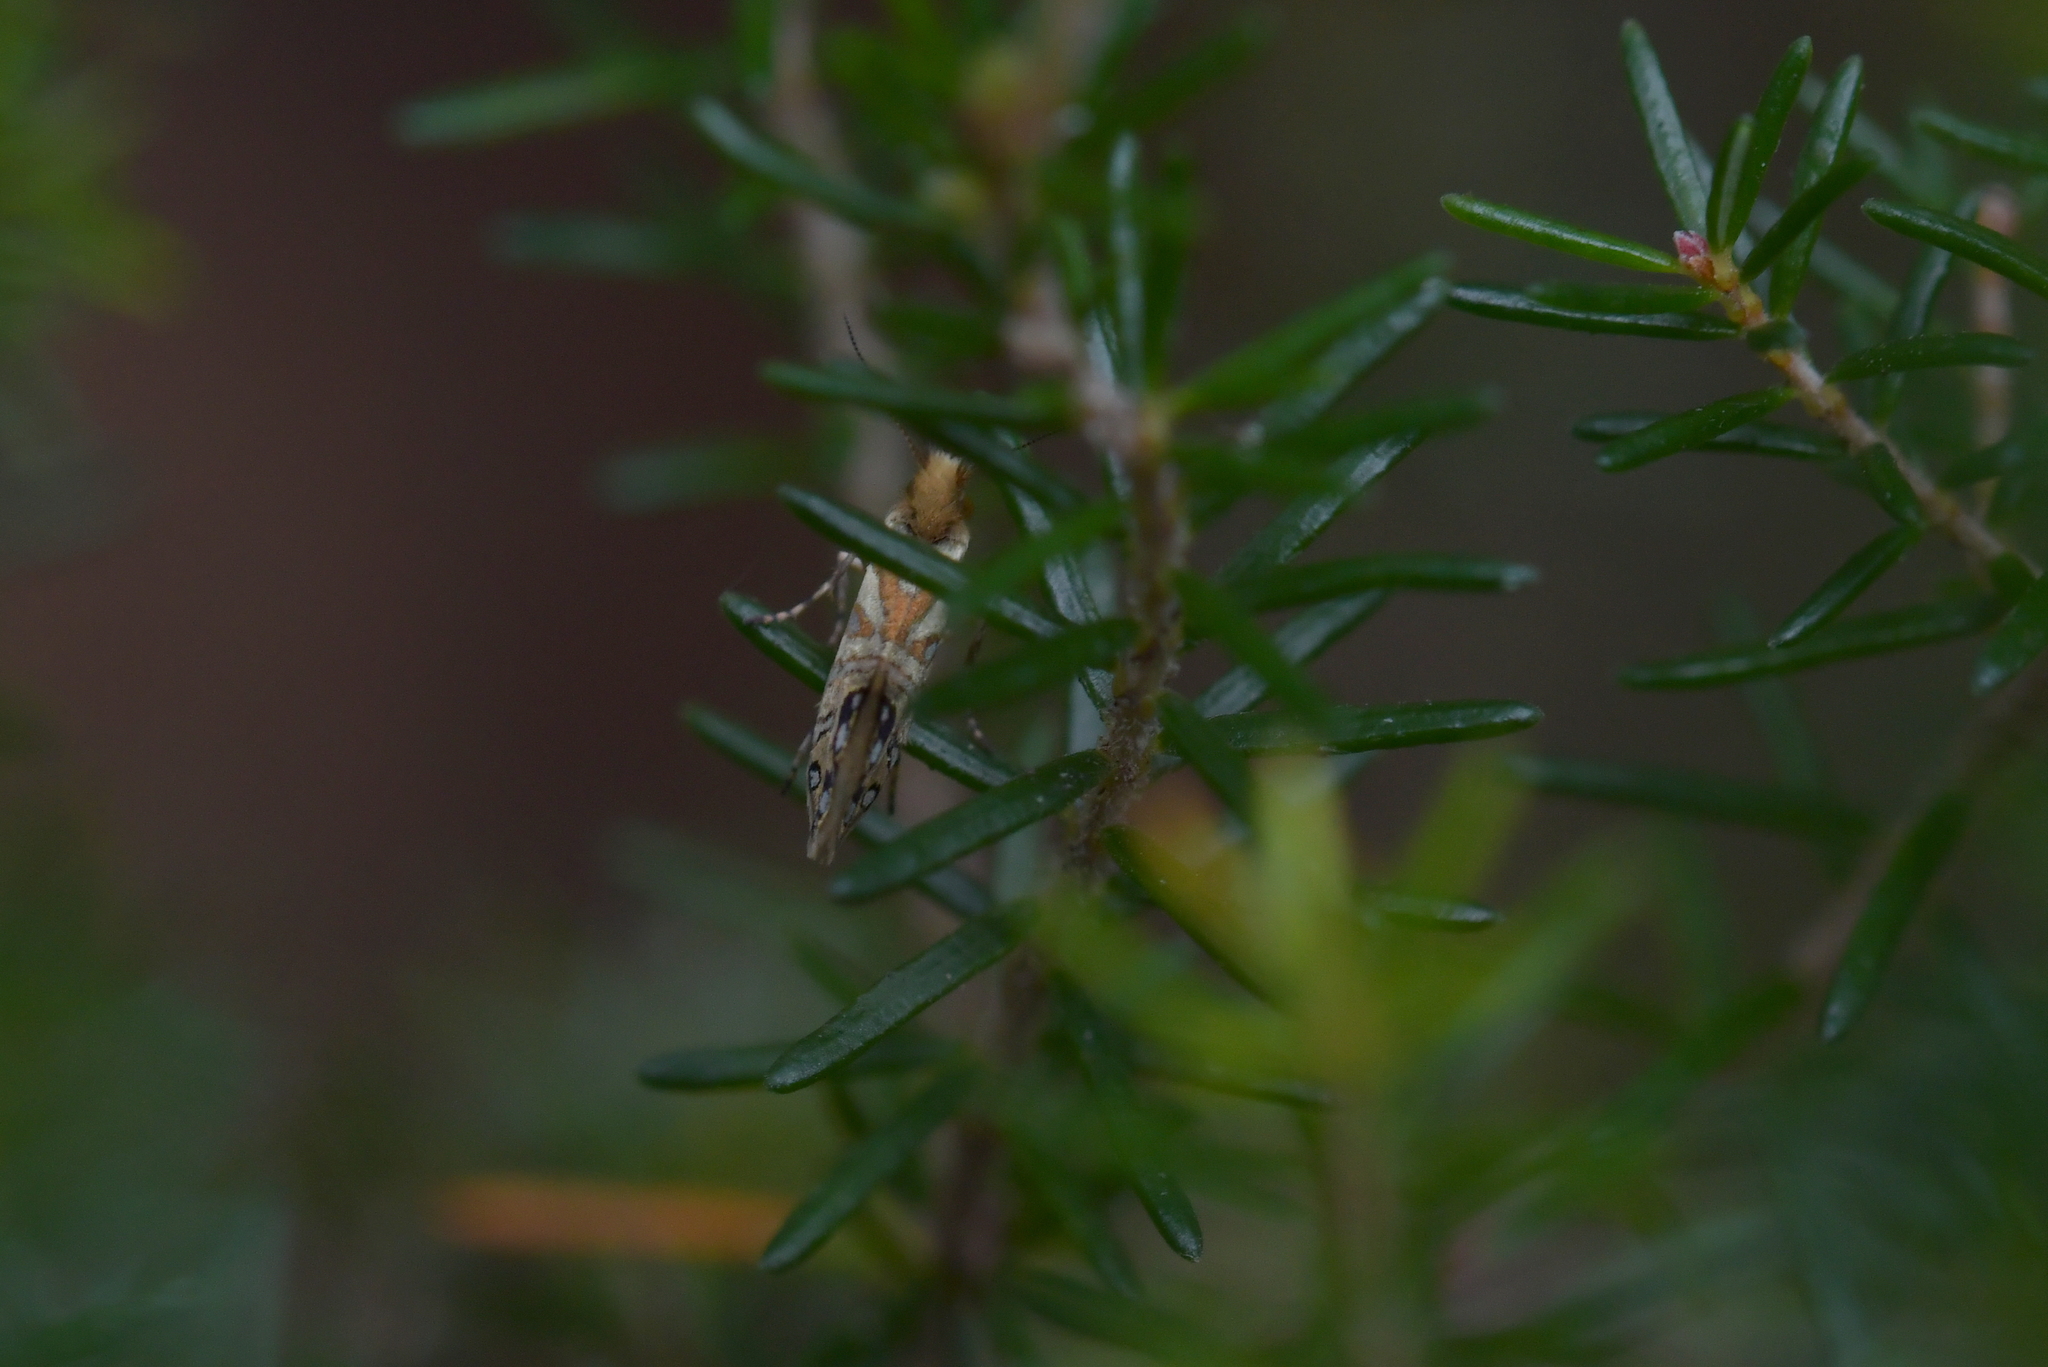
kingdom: Animalia
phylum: Arthropoda
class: Insecta
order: Lepidoptera
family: Micropterigidae
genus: Sabatinca
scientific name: Sabatinca doroxena
